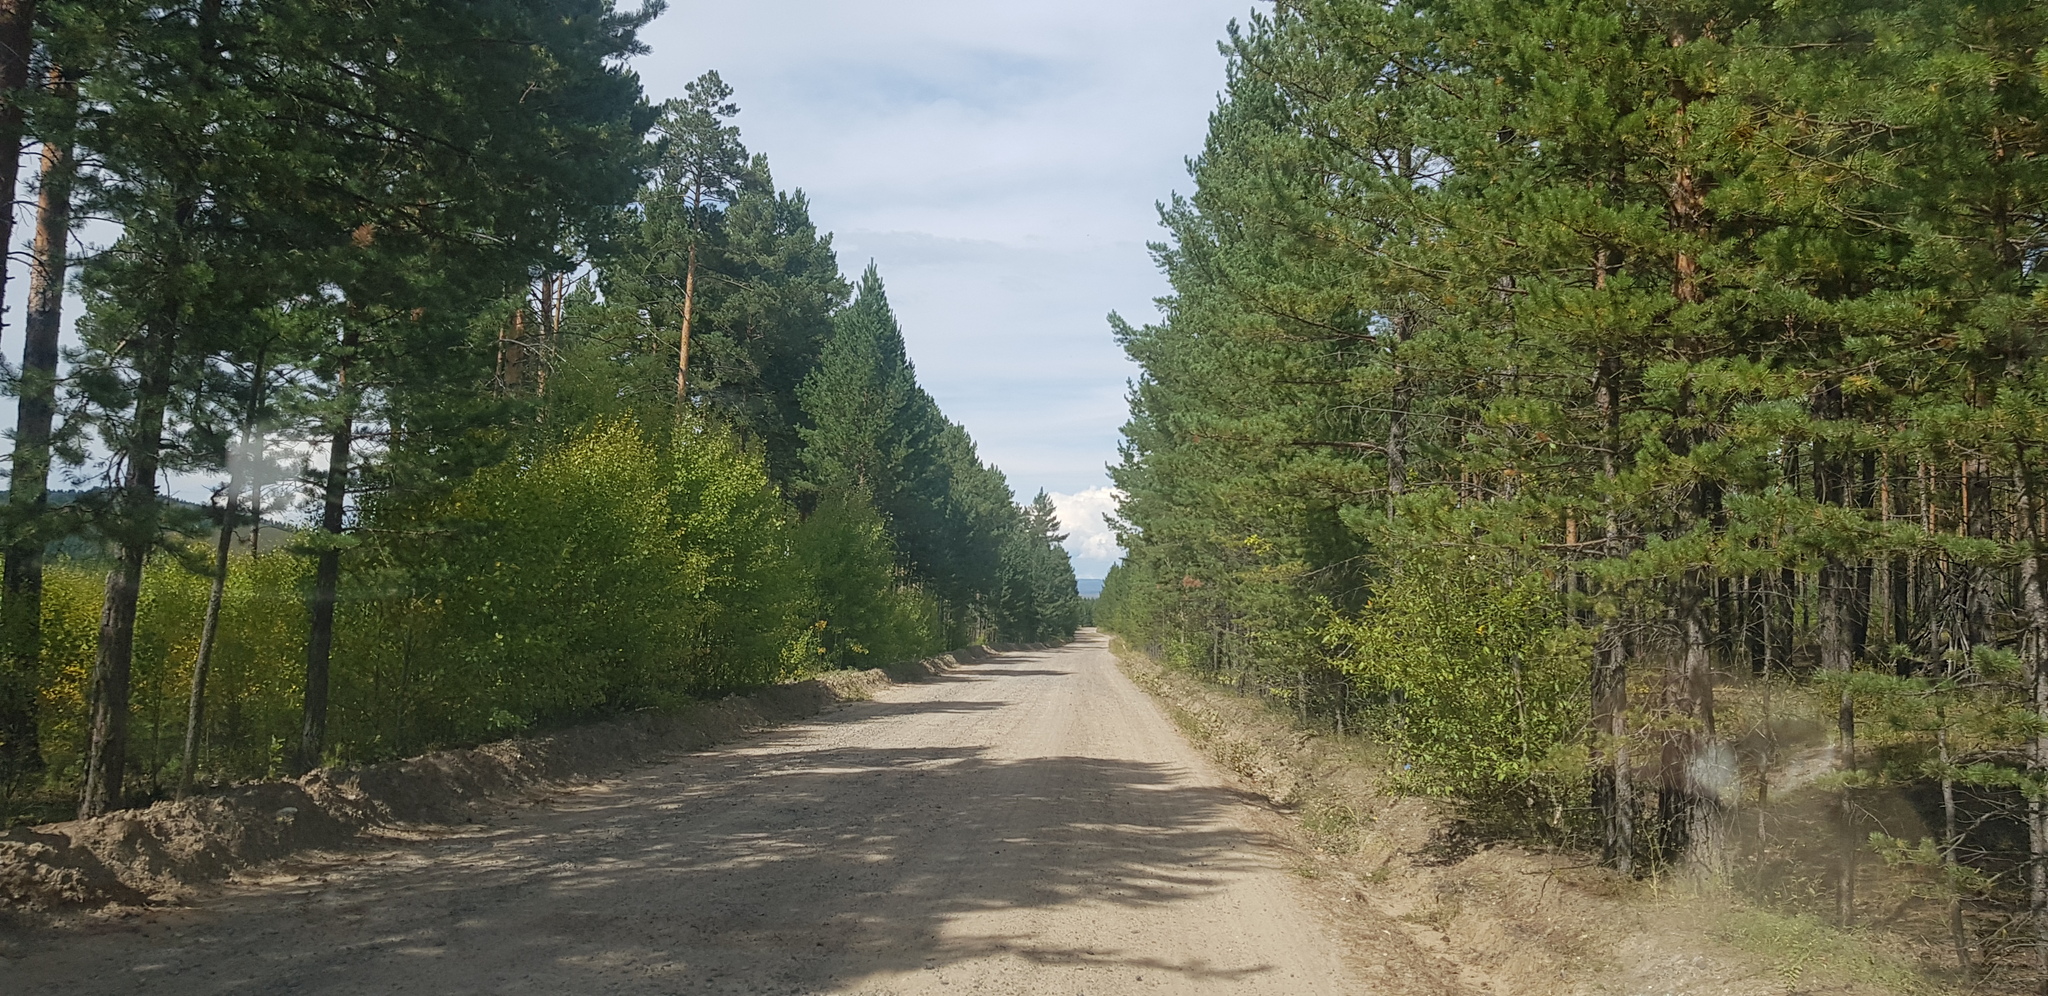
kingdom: Plantae
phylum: Tracheophyta
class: Pinopsida
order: Pinales
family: Pinaceae
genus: Pinus
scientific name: Pinus sylvestris
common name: Scots pine
